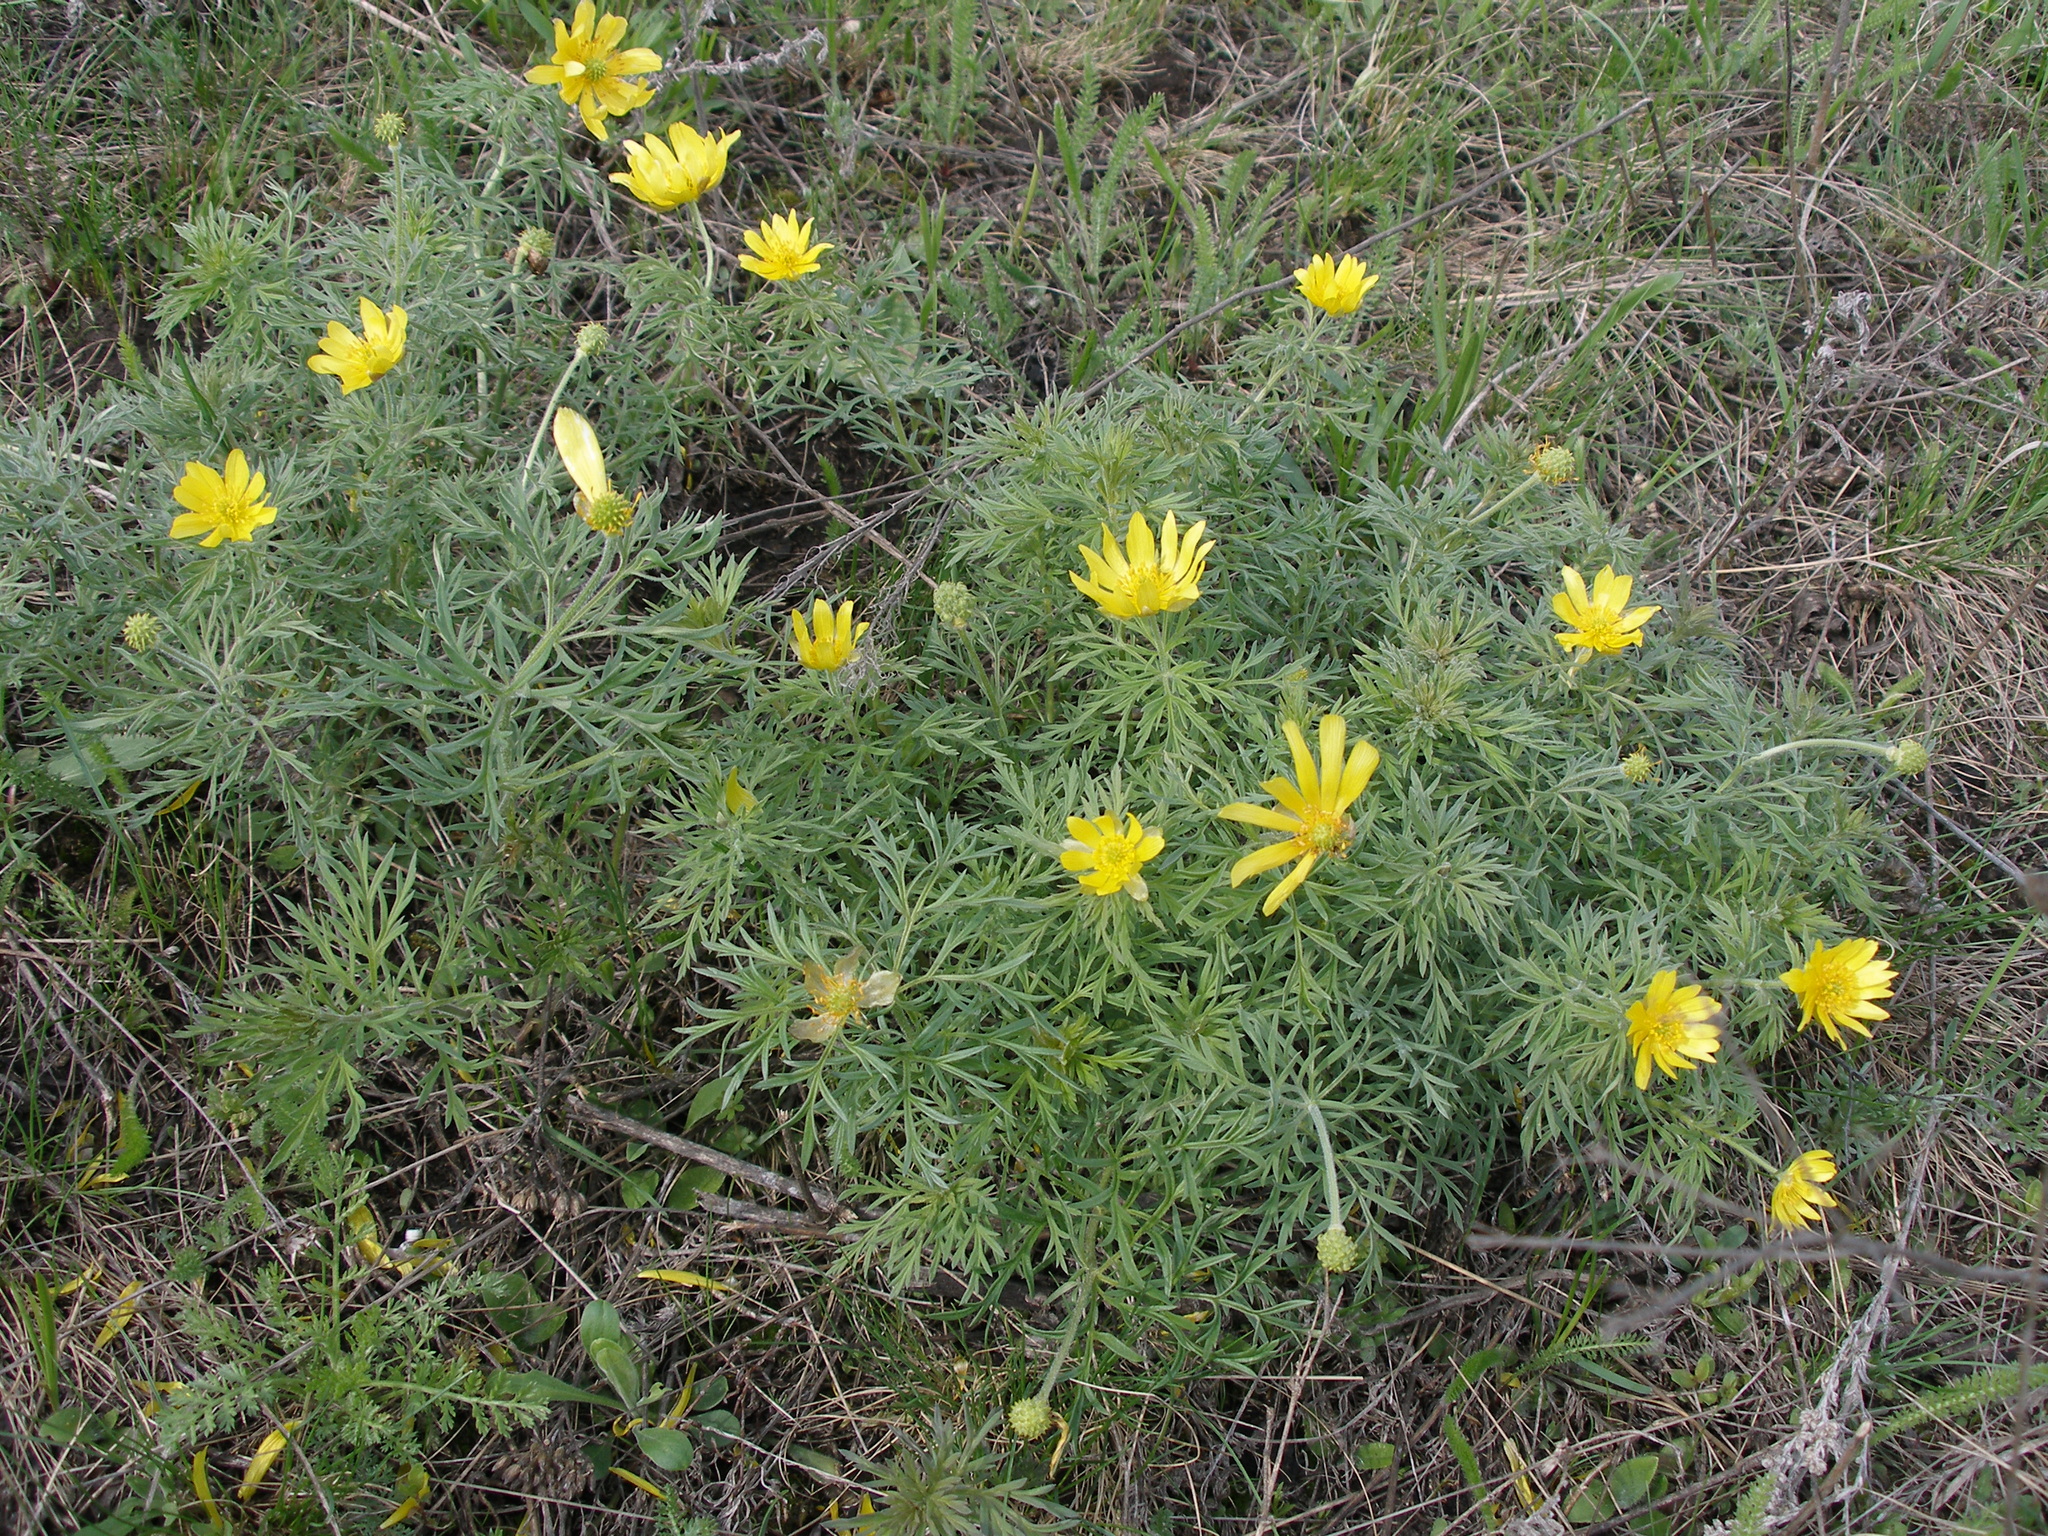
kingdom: Plantae
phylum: Tracheophyta
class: Magnoliopsida
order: Ranunculales
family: Ranunculaceae
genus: Adonis
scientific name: Adonis volgensis
